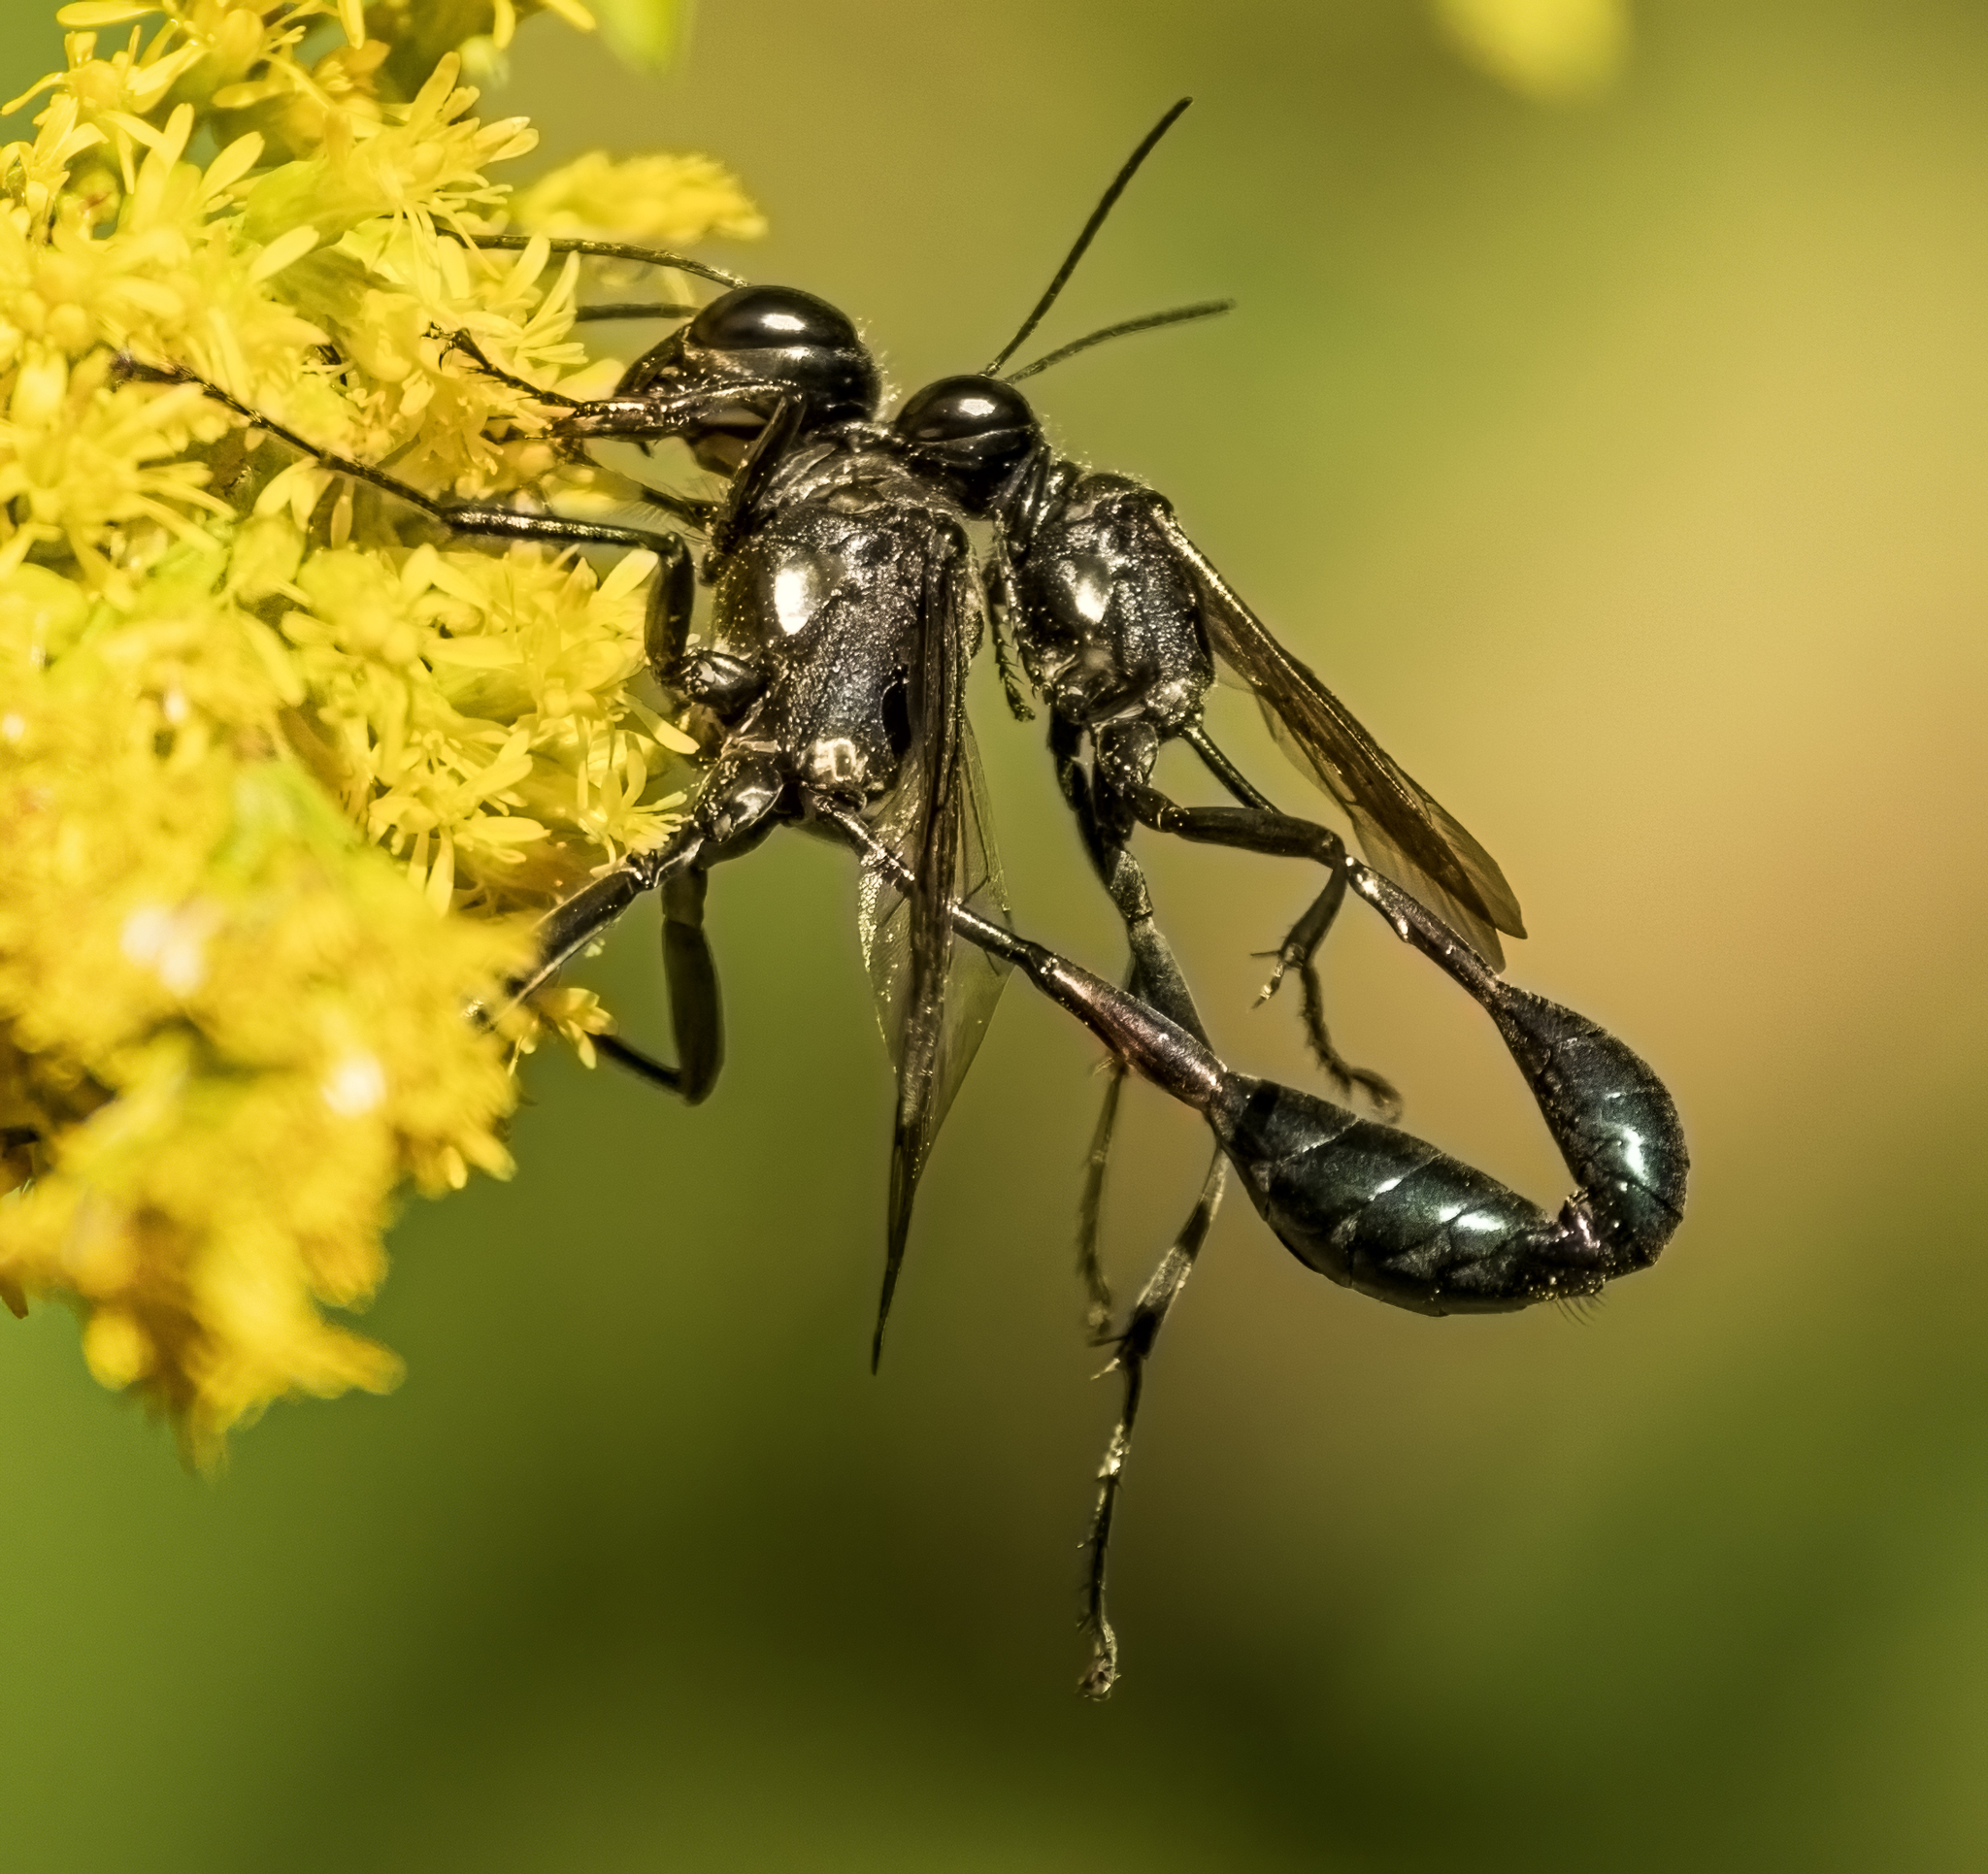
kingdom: Animalia
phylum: Arthropoda
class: Insecta
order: Hymenoptera
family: Sphecidae
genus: Eremnophila
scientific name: Eremnophila aureonotata
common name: Gold-marked thread-waisted wasp
